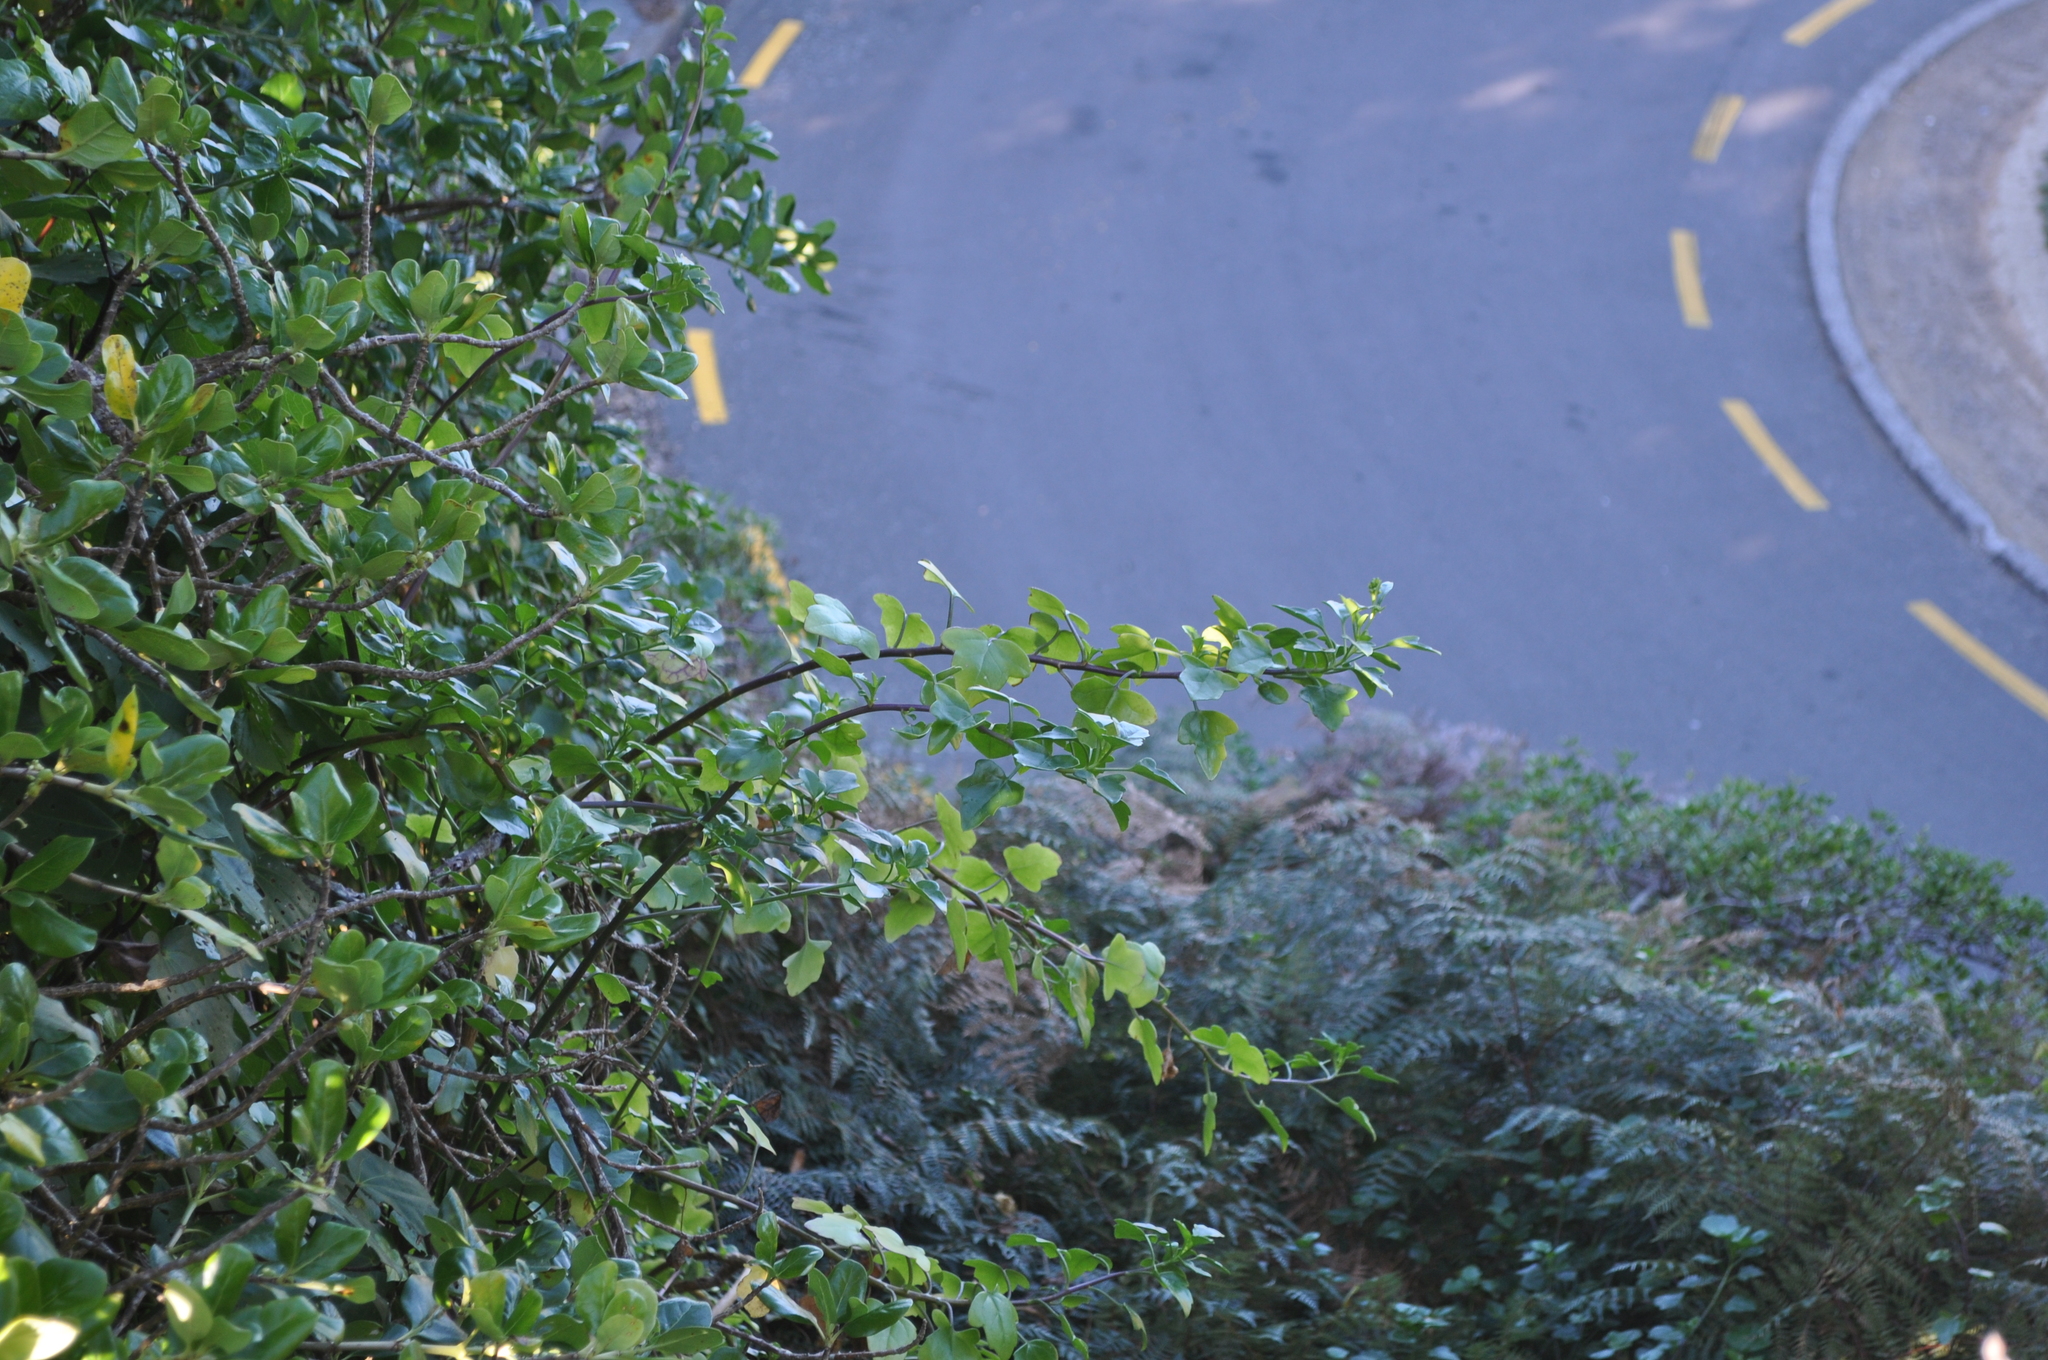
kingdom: Plantae
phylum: Tracheophyta
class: Magnoliopsida
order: Asterales
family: Asteraceae
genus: Senecio
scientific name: Senecio angulatus
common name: Climbing groundsel
